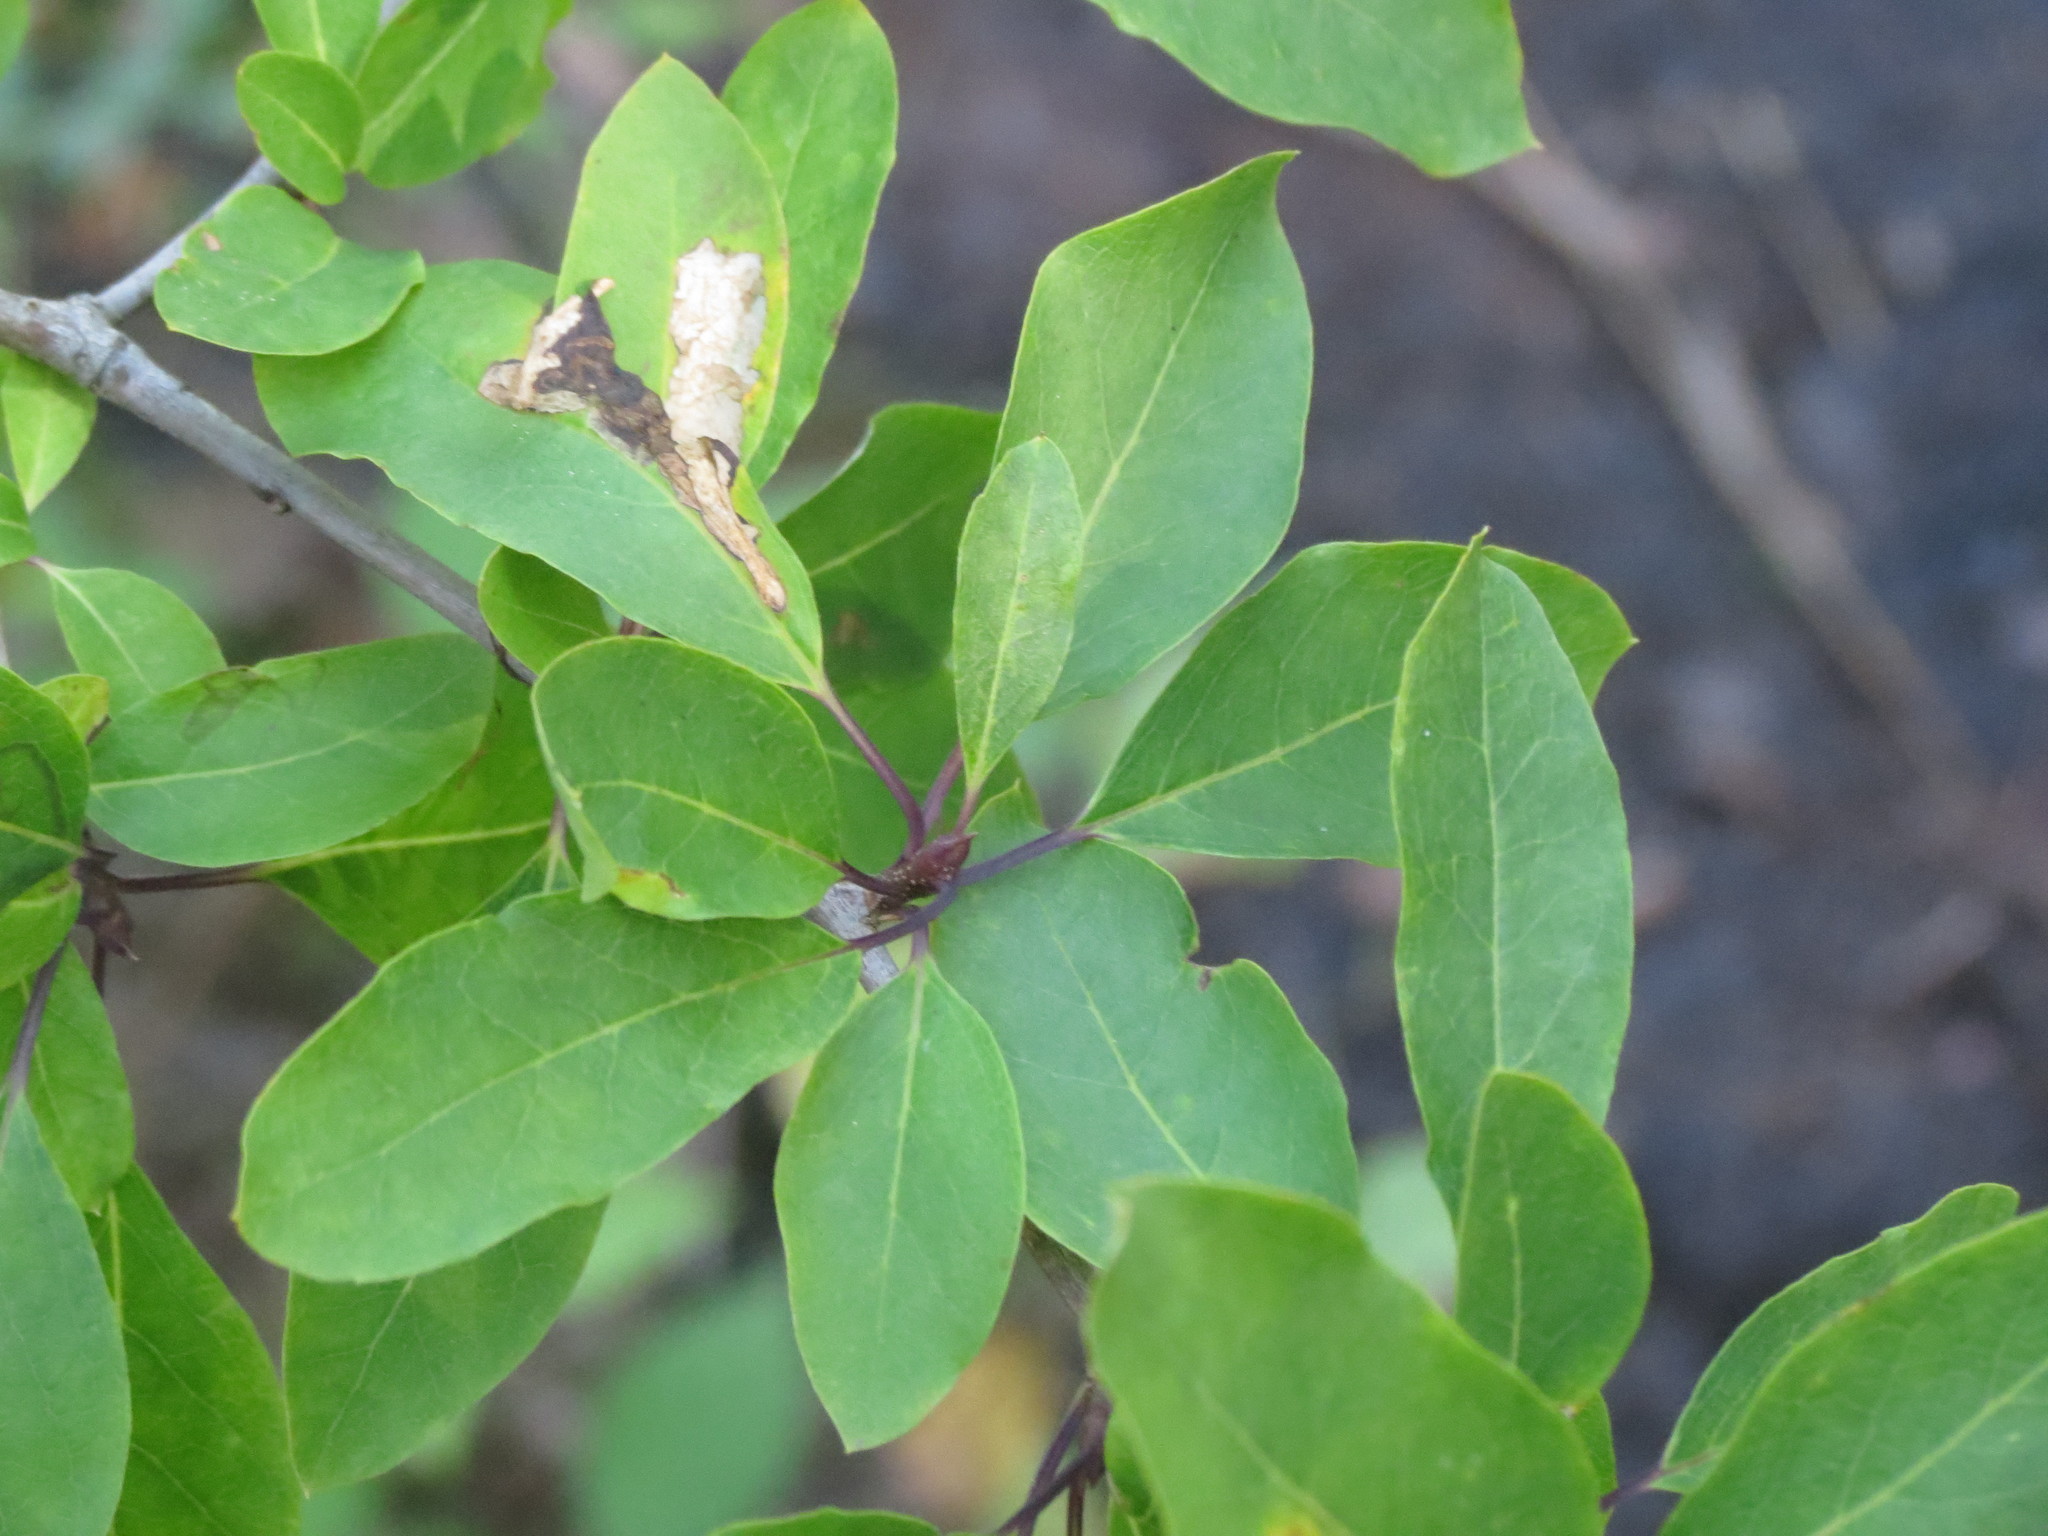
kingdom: Plantae
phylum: Tracheophyta
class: Magnoliopsida
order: Aquifoliales
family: Aquifoliaceae
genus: Ilex
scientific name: Ilex mucronata
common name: Catberry
